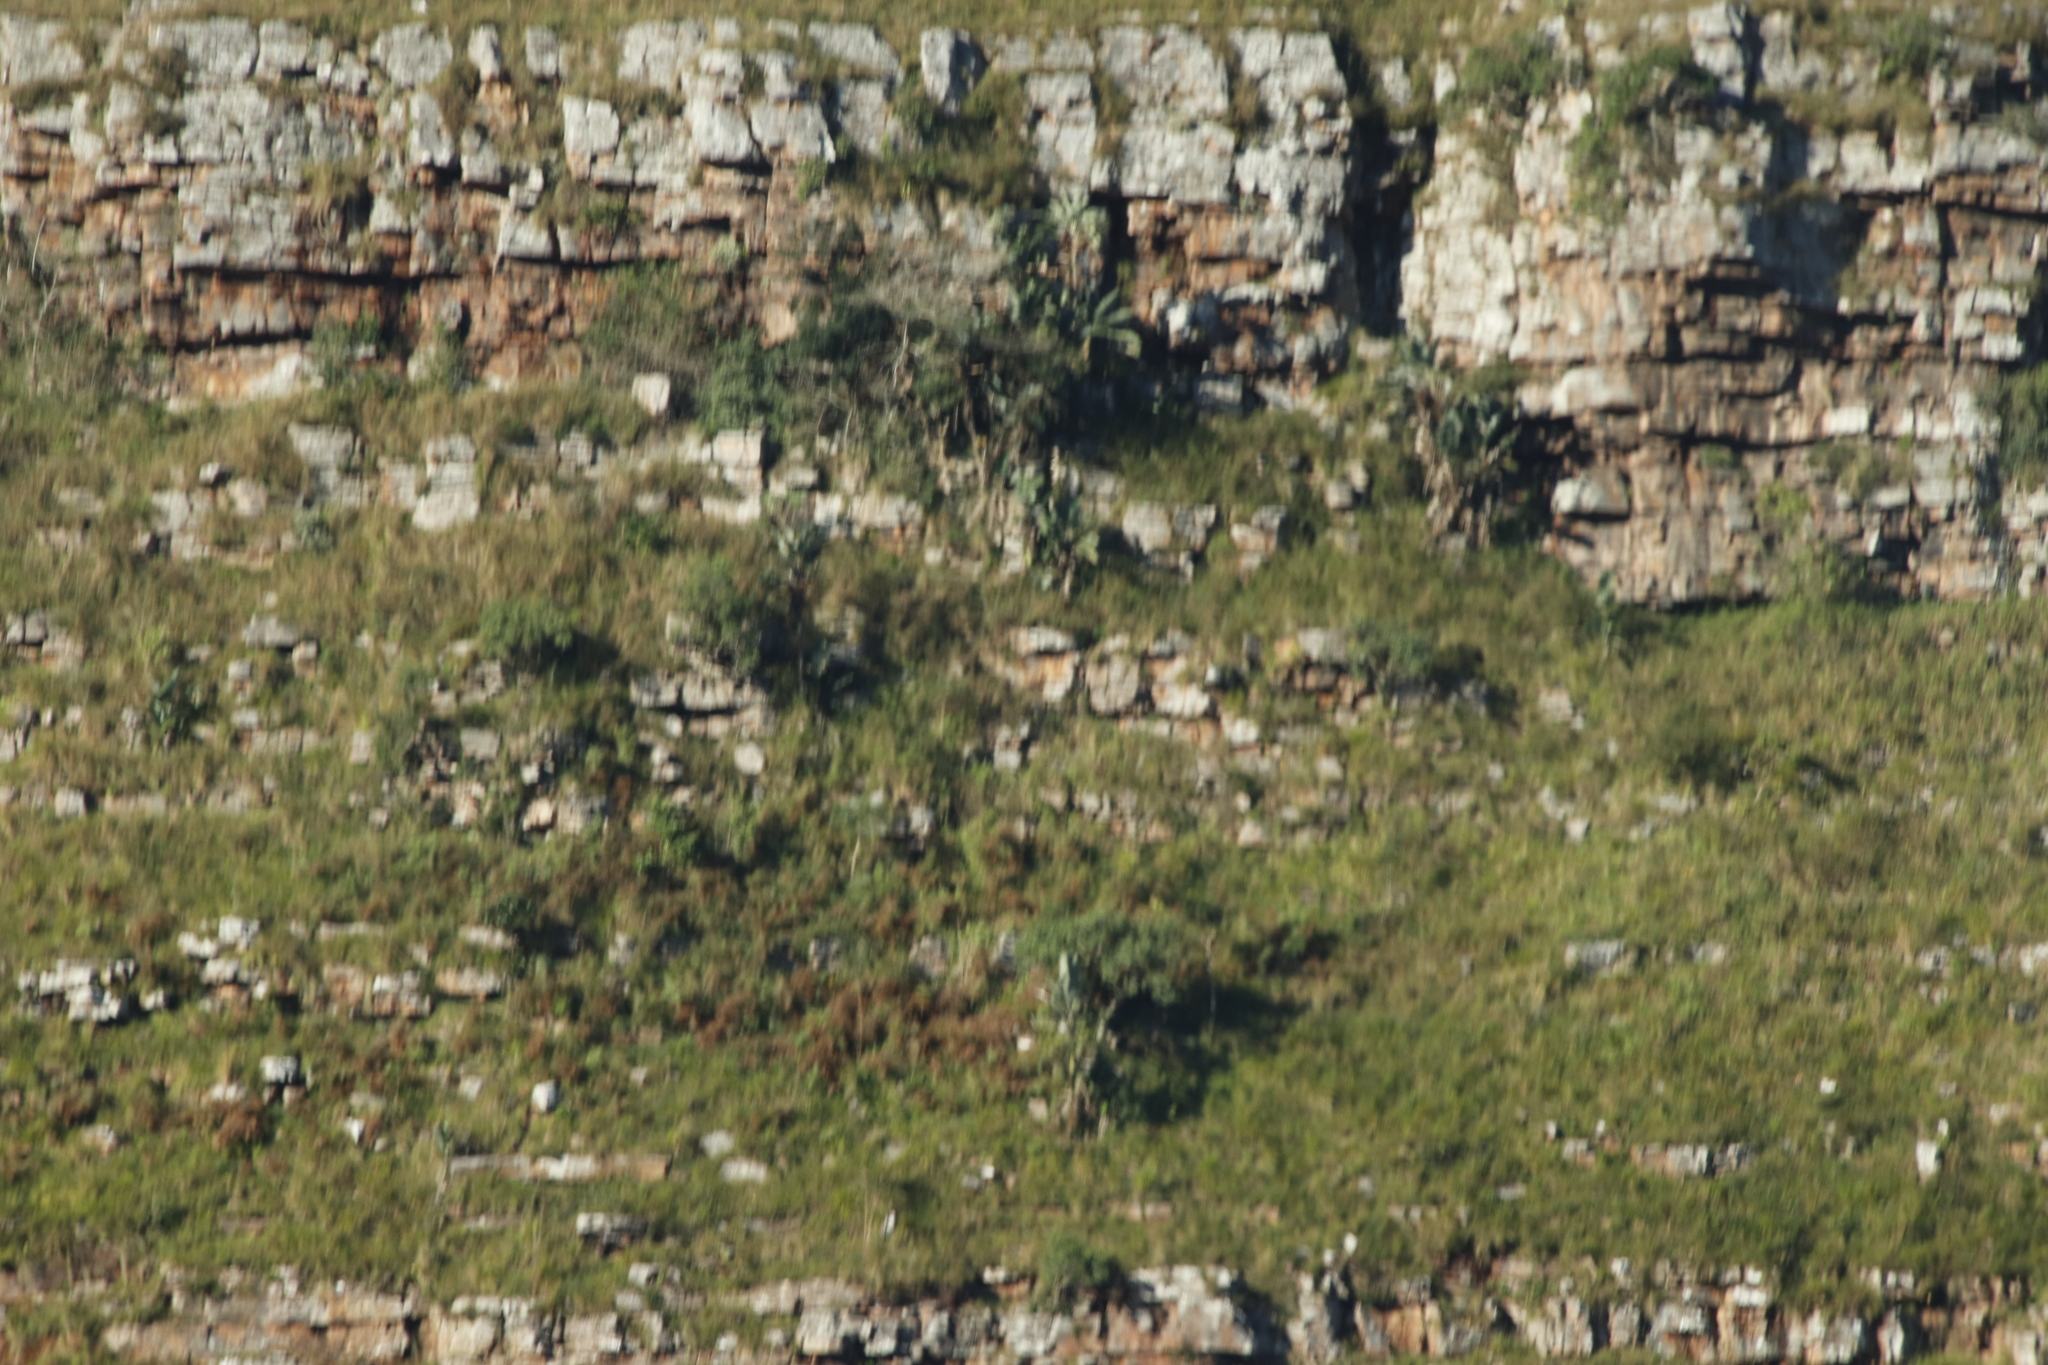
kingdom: Plantae
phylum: Tracheophyta
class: Liliopsida
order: Zingiberales
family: Strelitziaceae
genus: Strelitzia
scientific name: Strelitzia nicolai
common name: Bird-of-paradise tree
